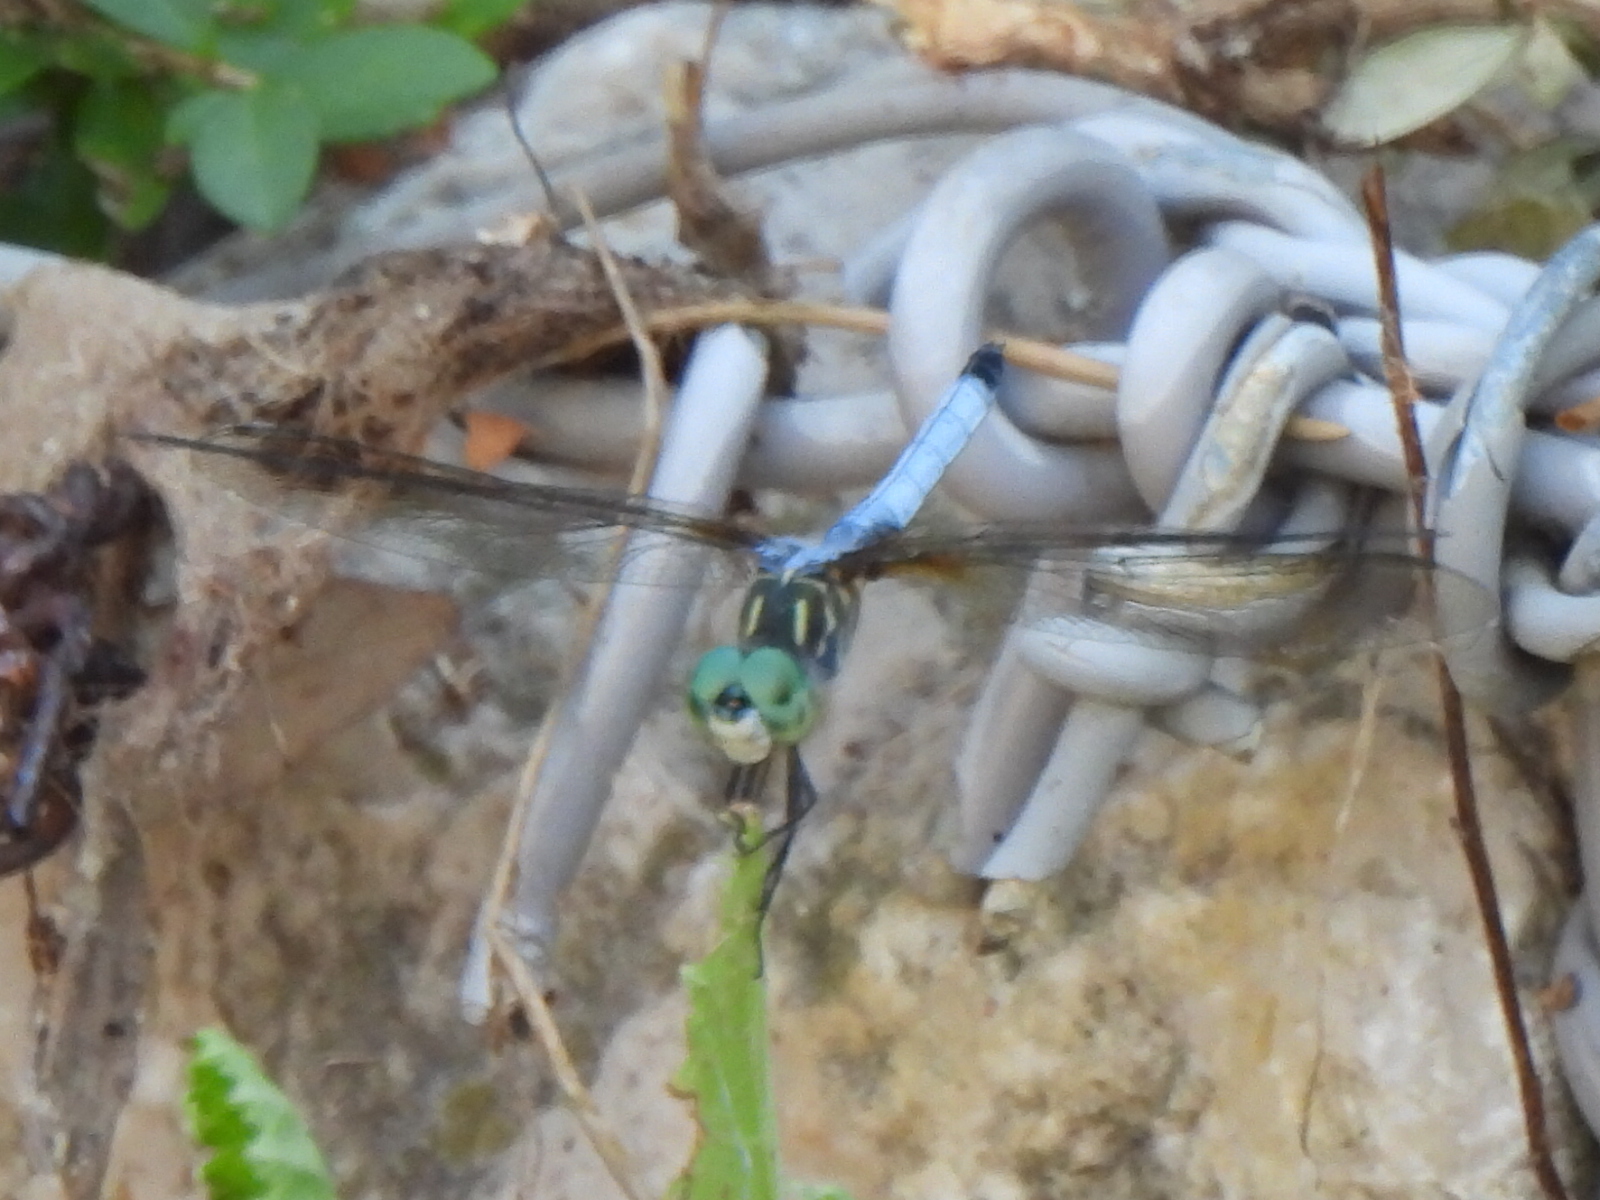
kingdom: Animalia
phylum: Arthropoda
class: Insecta
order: Odonata
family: Libellulidae
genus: Pachydiplax
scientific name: Pachydiplax longipennis
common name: Blue dasher
